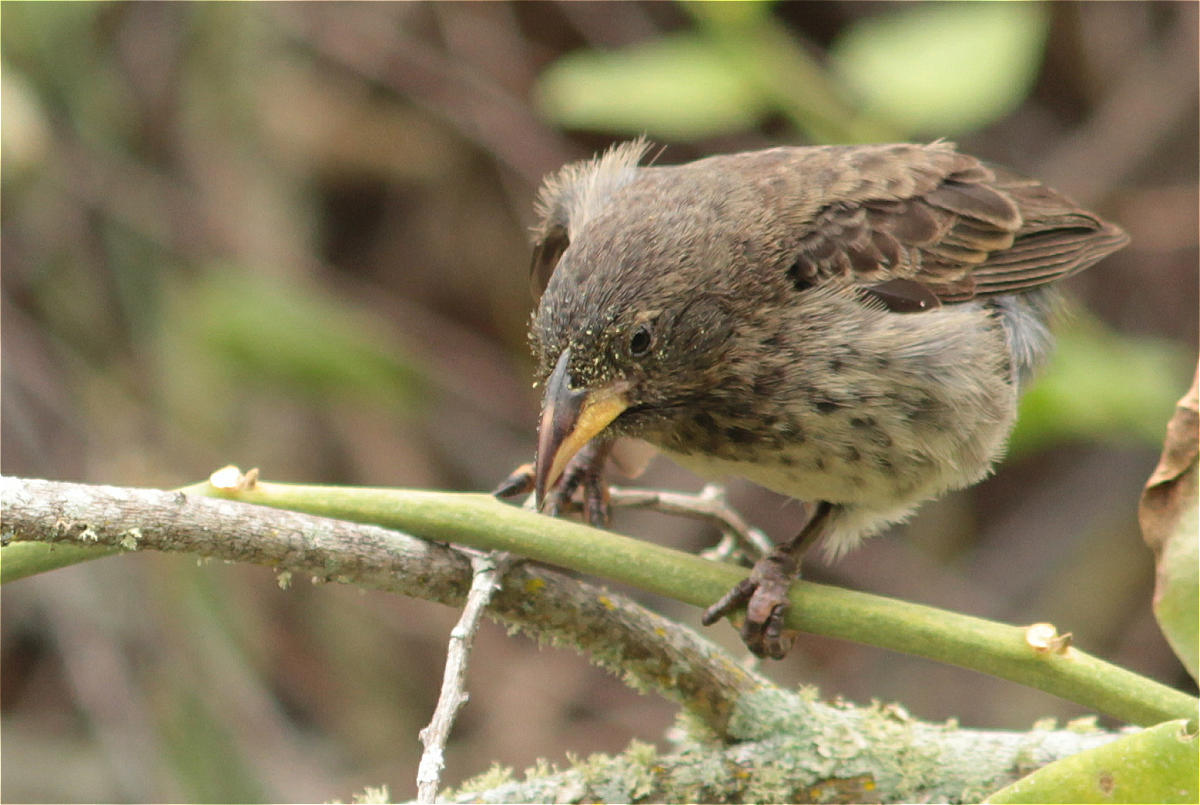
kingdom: Animalia
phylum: Chordata
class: Aves
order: Passeriformes
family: Thraupidae
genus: Geospiza
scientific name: Geospiza scandens
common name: Common cactus-finch
